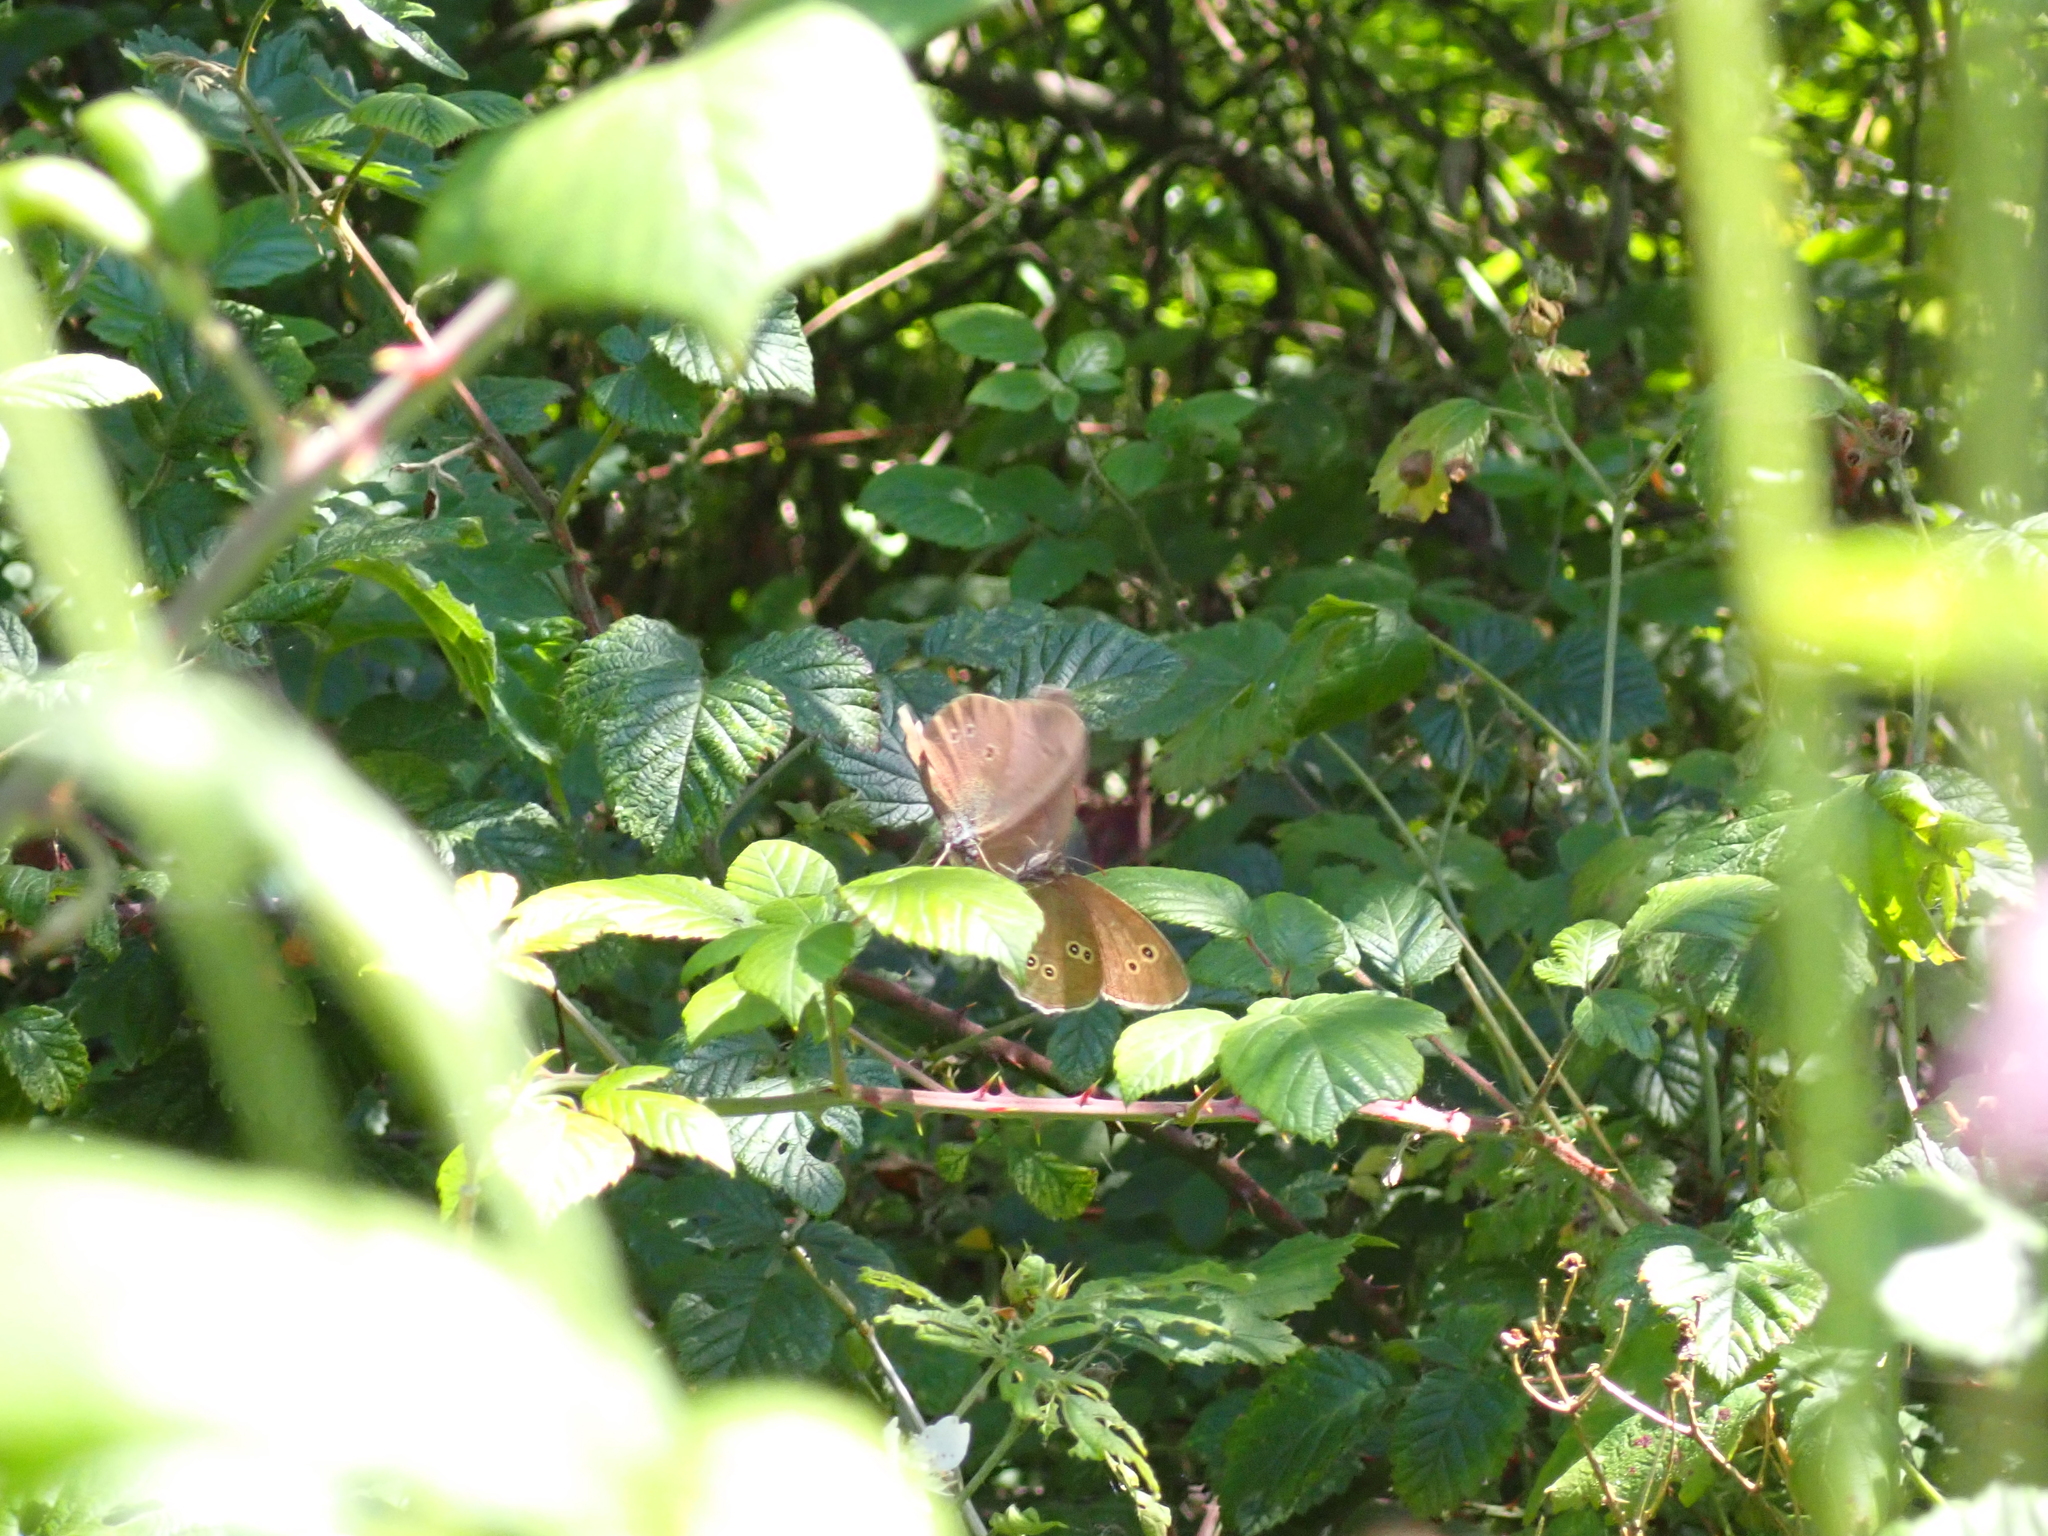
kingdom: Animalia
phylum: Arthropoda
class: Insecta
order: Lepidoptera
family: Nymphalidae
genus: Aphantopus
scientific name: Aphantopus hyperantus
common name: Ringlet
